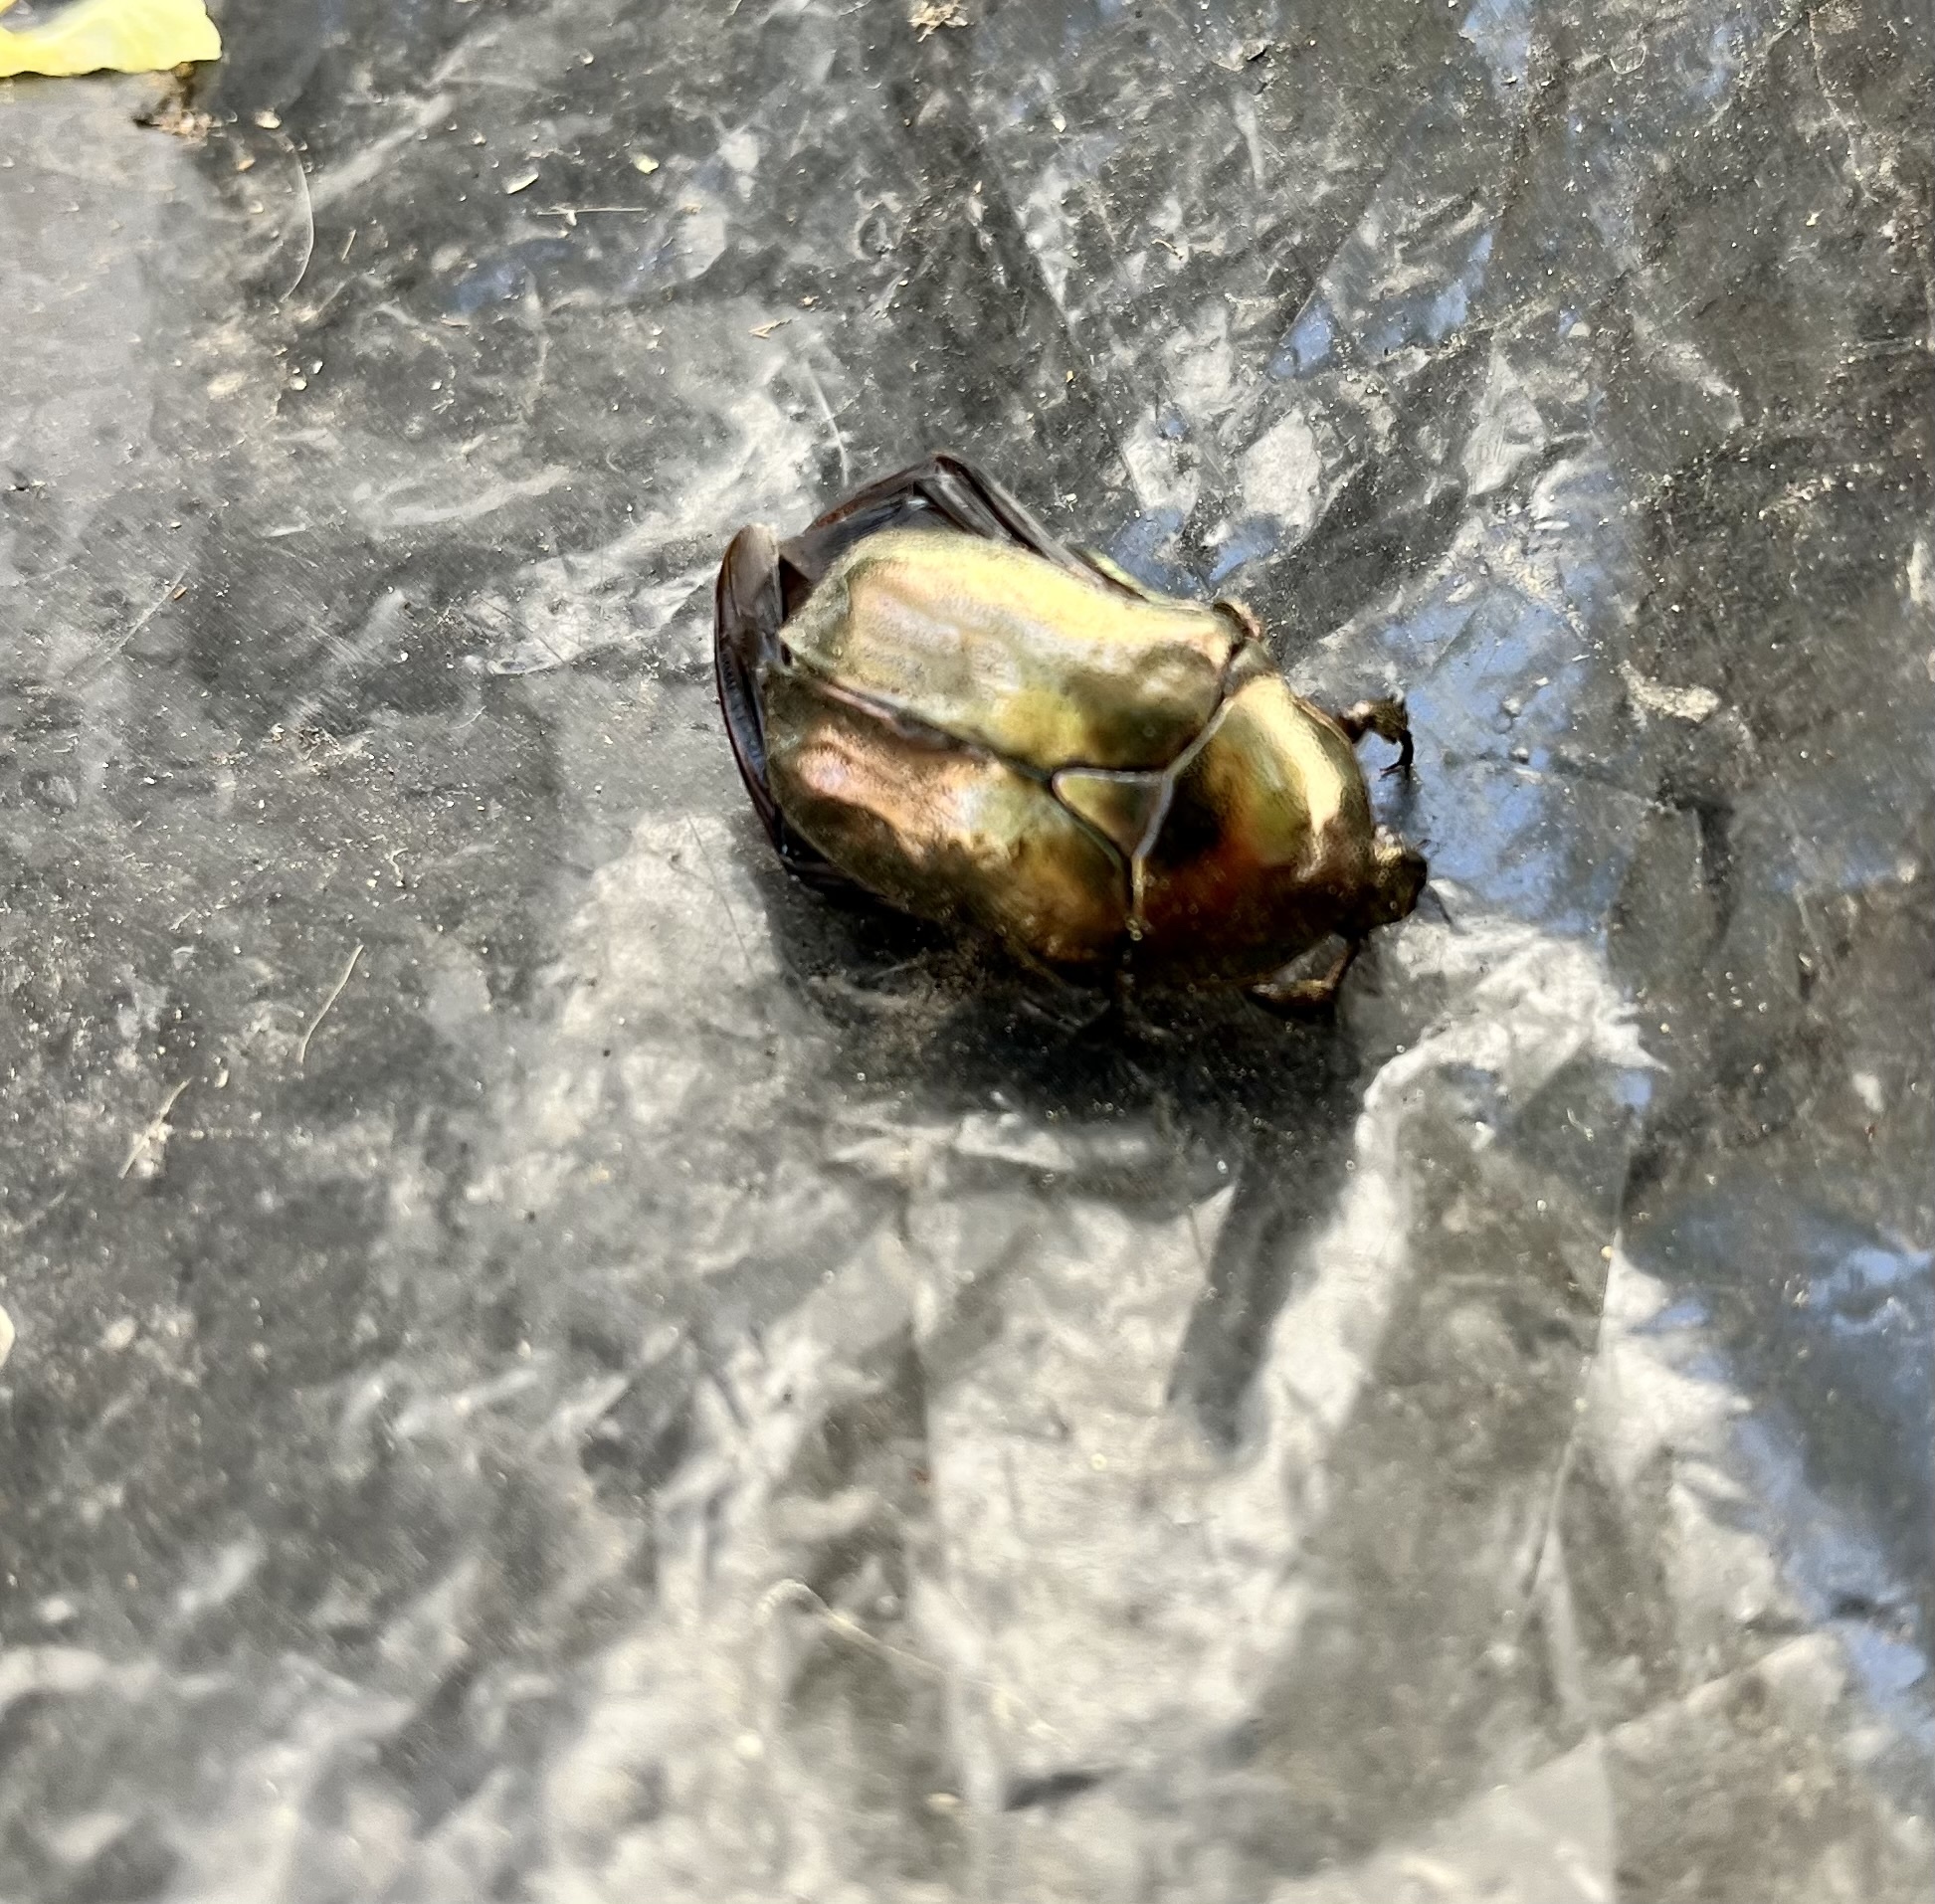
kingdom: Animalia
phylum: Arthropoda
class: Insecta
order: Coleoptera
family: Scarabaeidae
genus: Protaetia
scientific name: Protaetia cuprea
